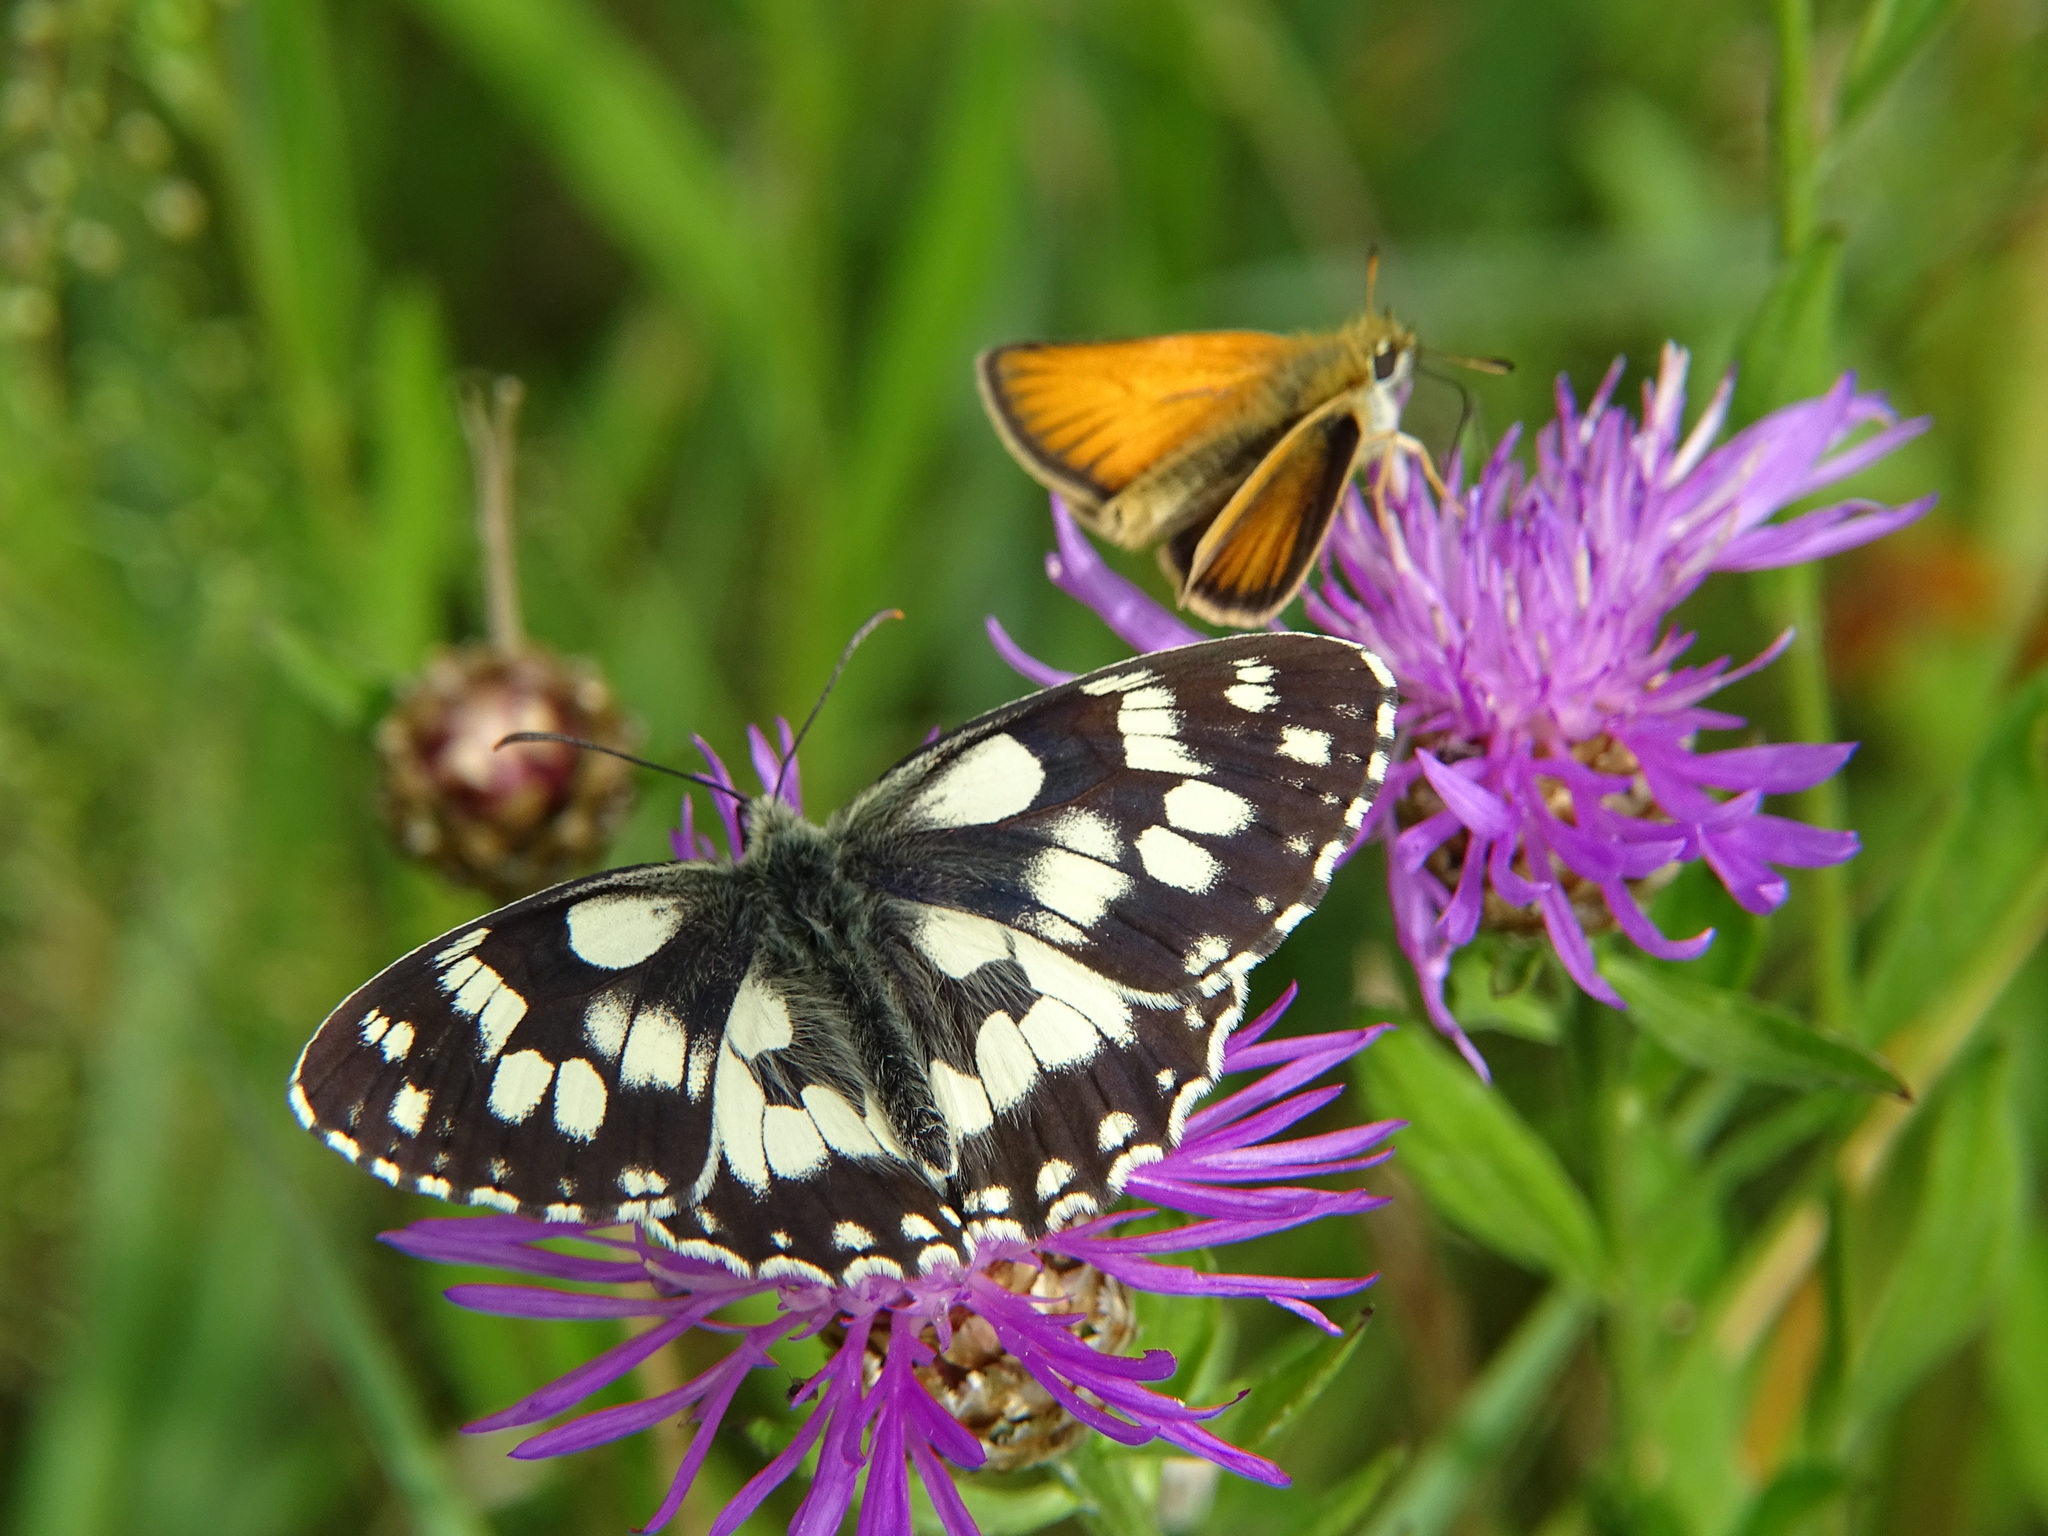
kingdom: Animalia
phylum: Arthropoda
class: Insecta
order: Lepidoptera
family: Nymphalidae
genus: Melanargia
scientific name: Melanargia galathea
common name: Marbled white
